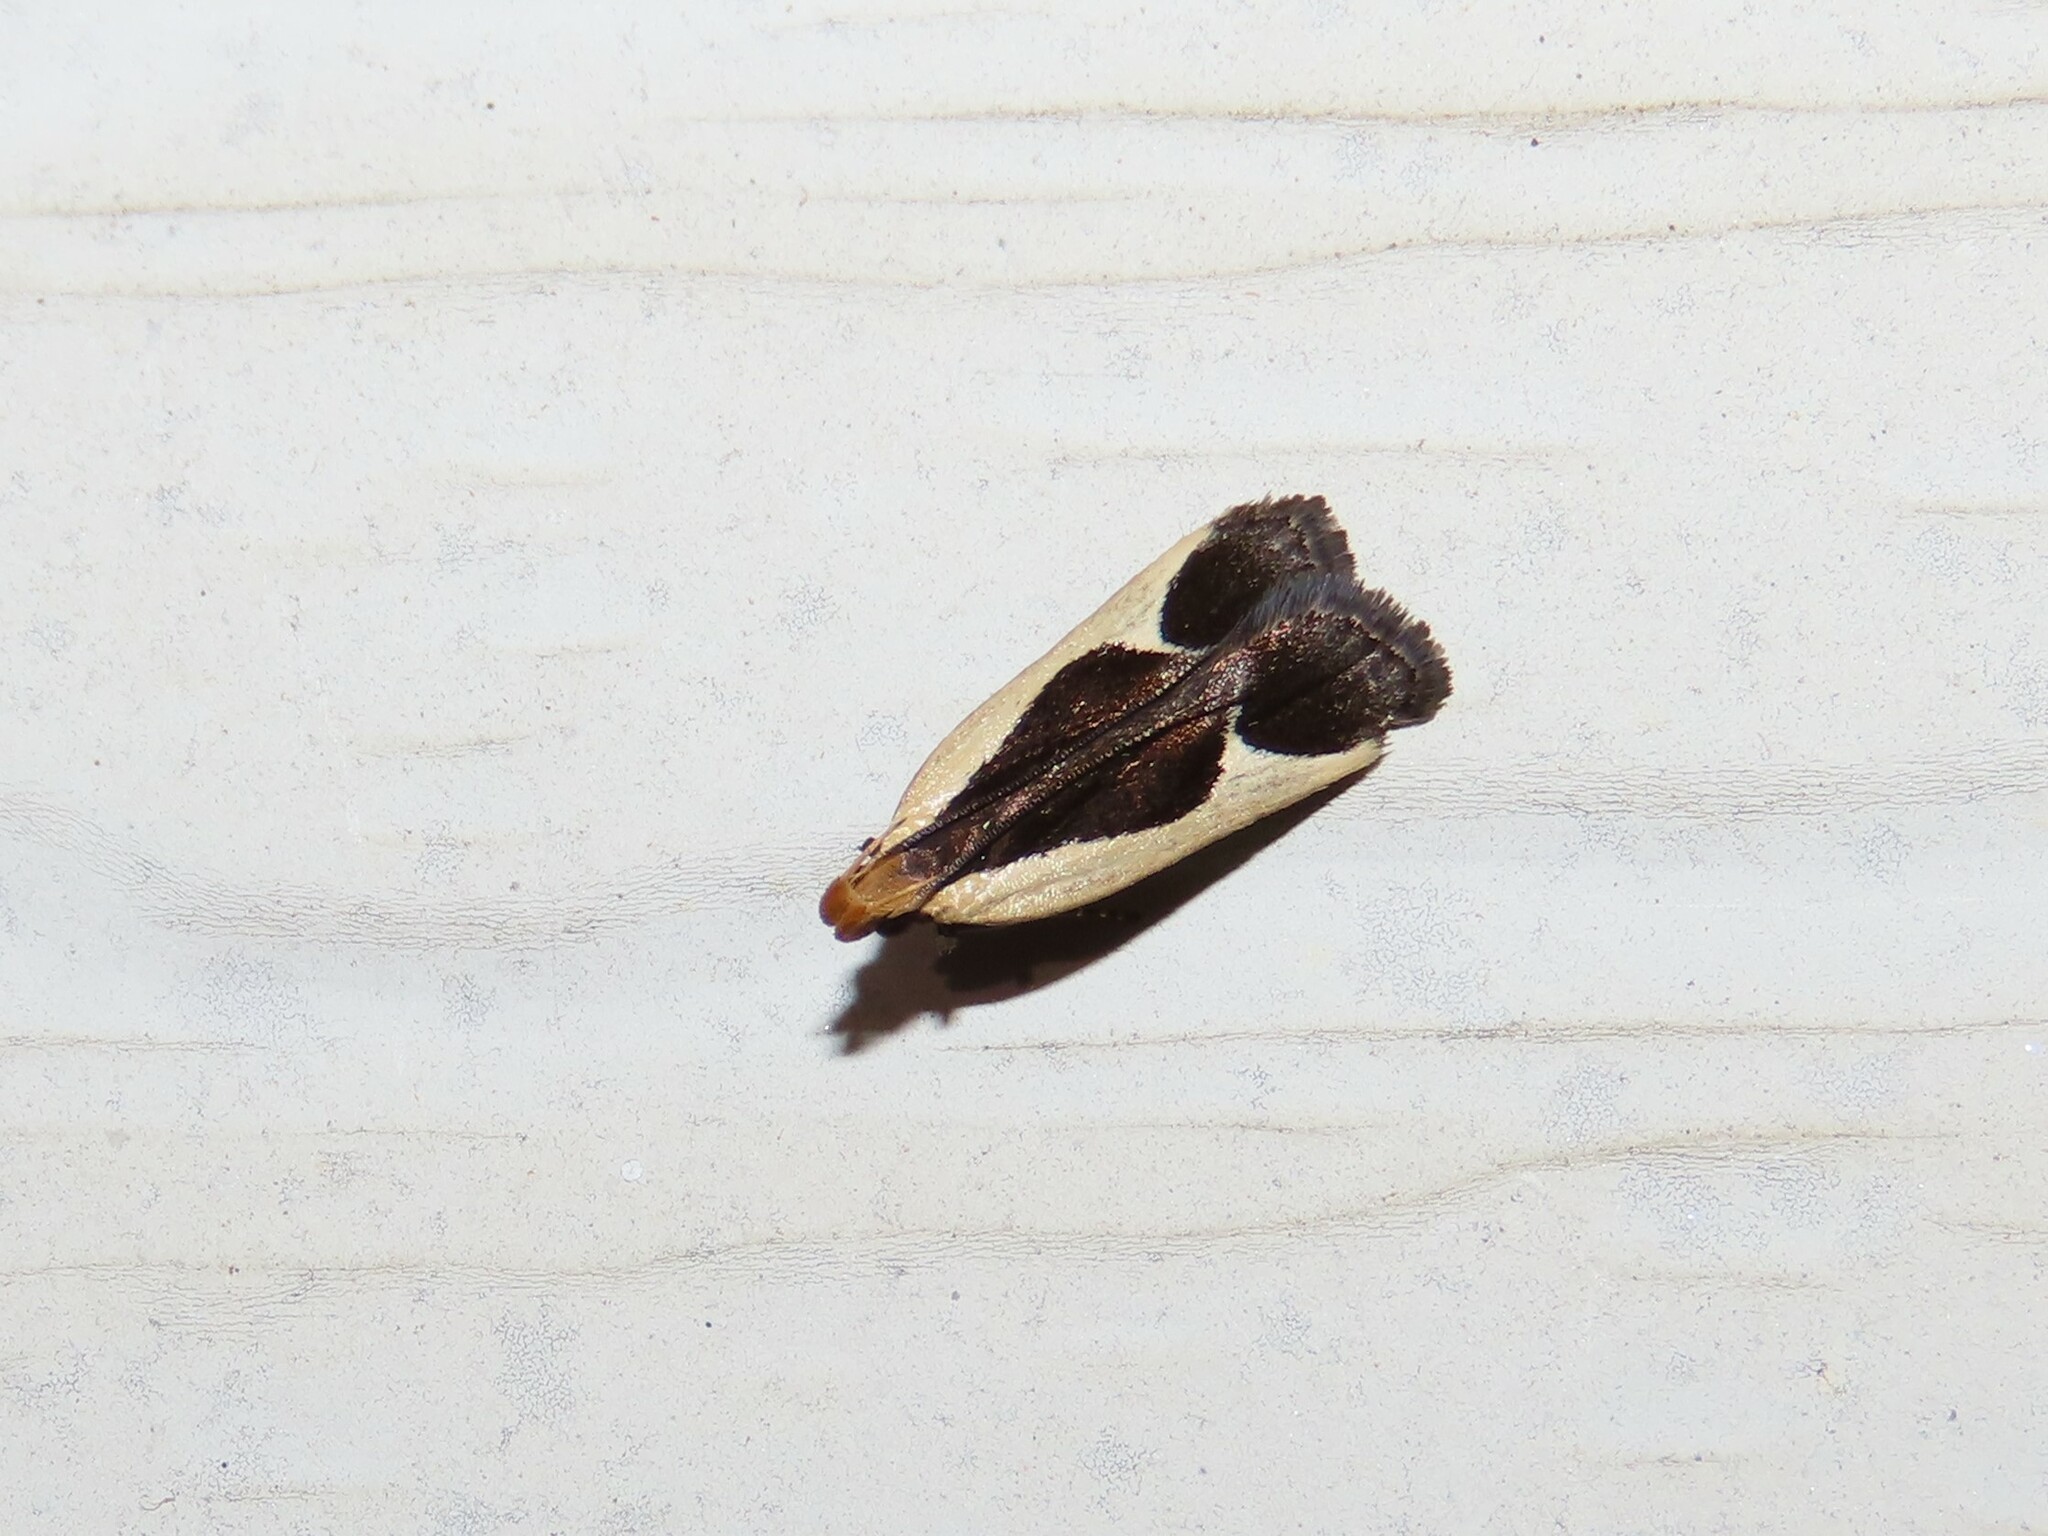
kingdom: Animalia
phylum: Arthropoda
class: Insecta
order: Lepidoptera
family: Gelechiidae
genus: Dichomeris
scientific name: Dichomeris flavocostella
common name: Cream-edged dichomeris moth
